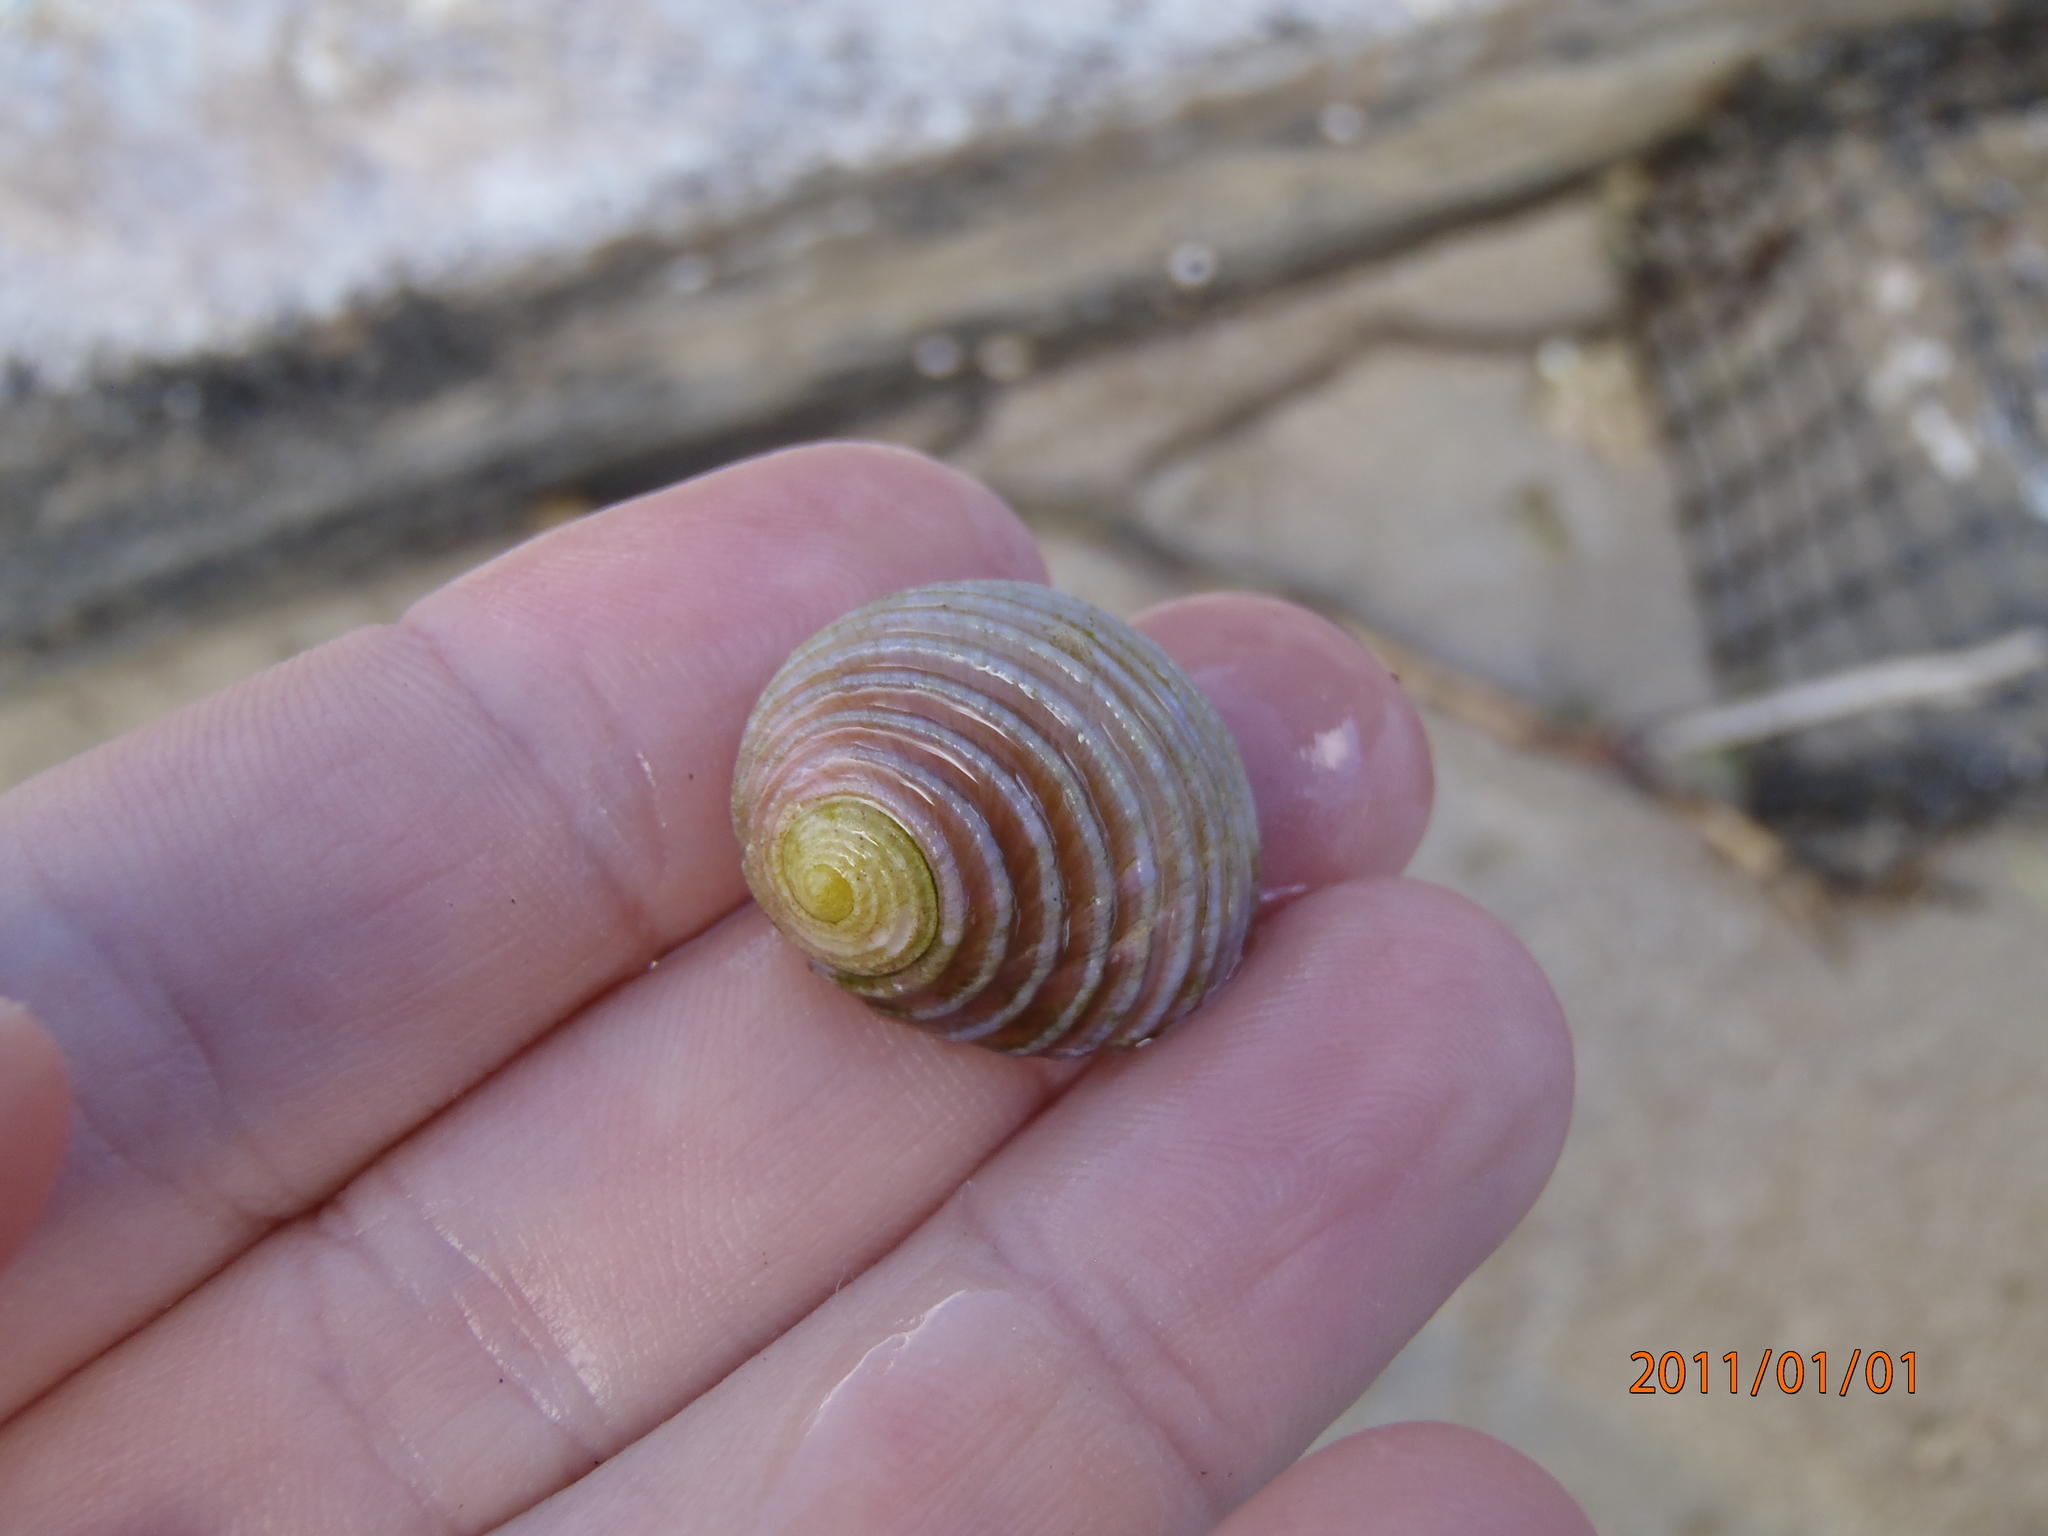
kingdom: Animalia
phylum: Mollusca
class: Gastropoda
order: Cycloneritida
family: Neritidae
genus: Nerita
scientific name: Nerita plicata
